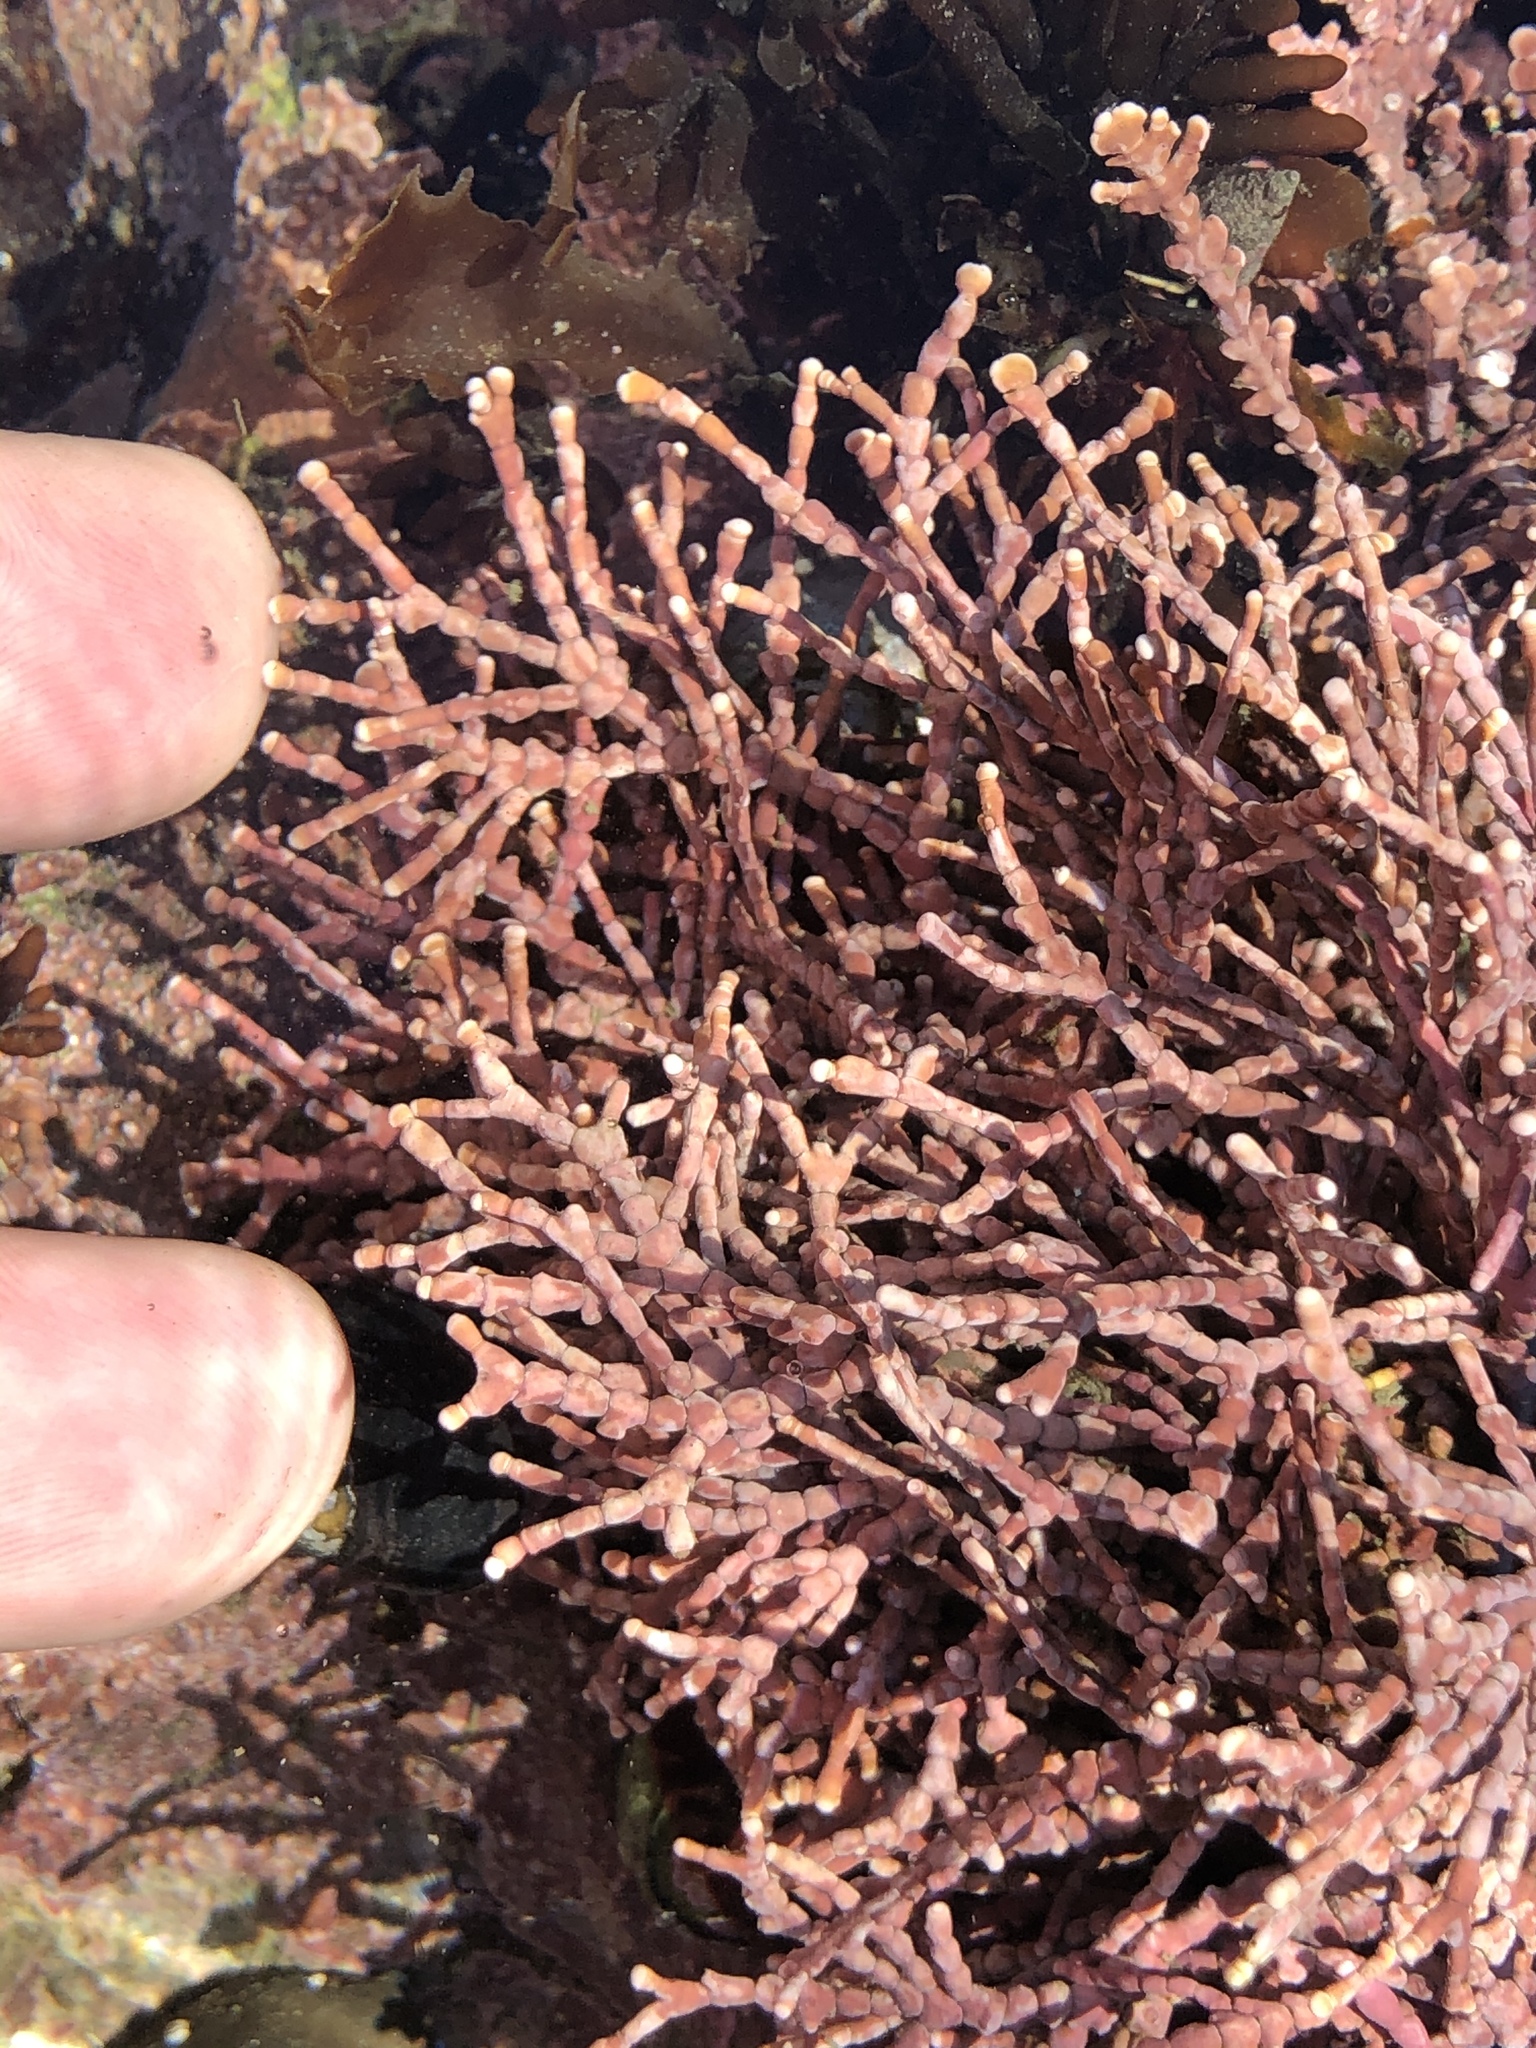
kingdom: Plantae
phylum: Rhodophyta
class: Florideophyceae
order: Corallinales
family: Corallinaceae
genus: Calliarthron
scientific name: Calliarthron tuberculosum
